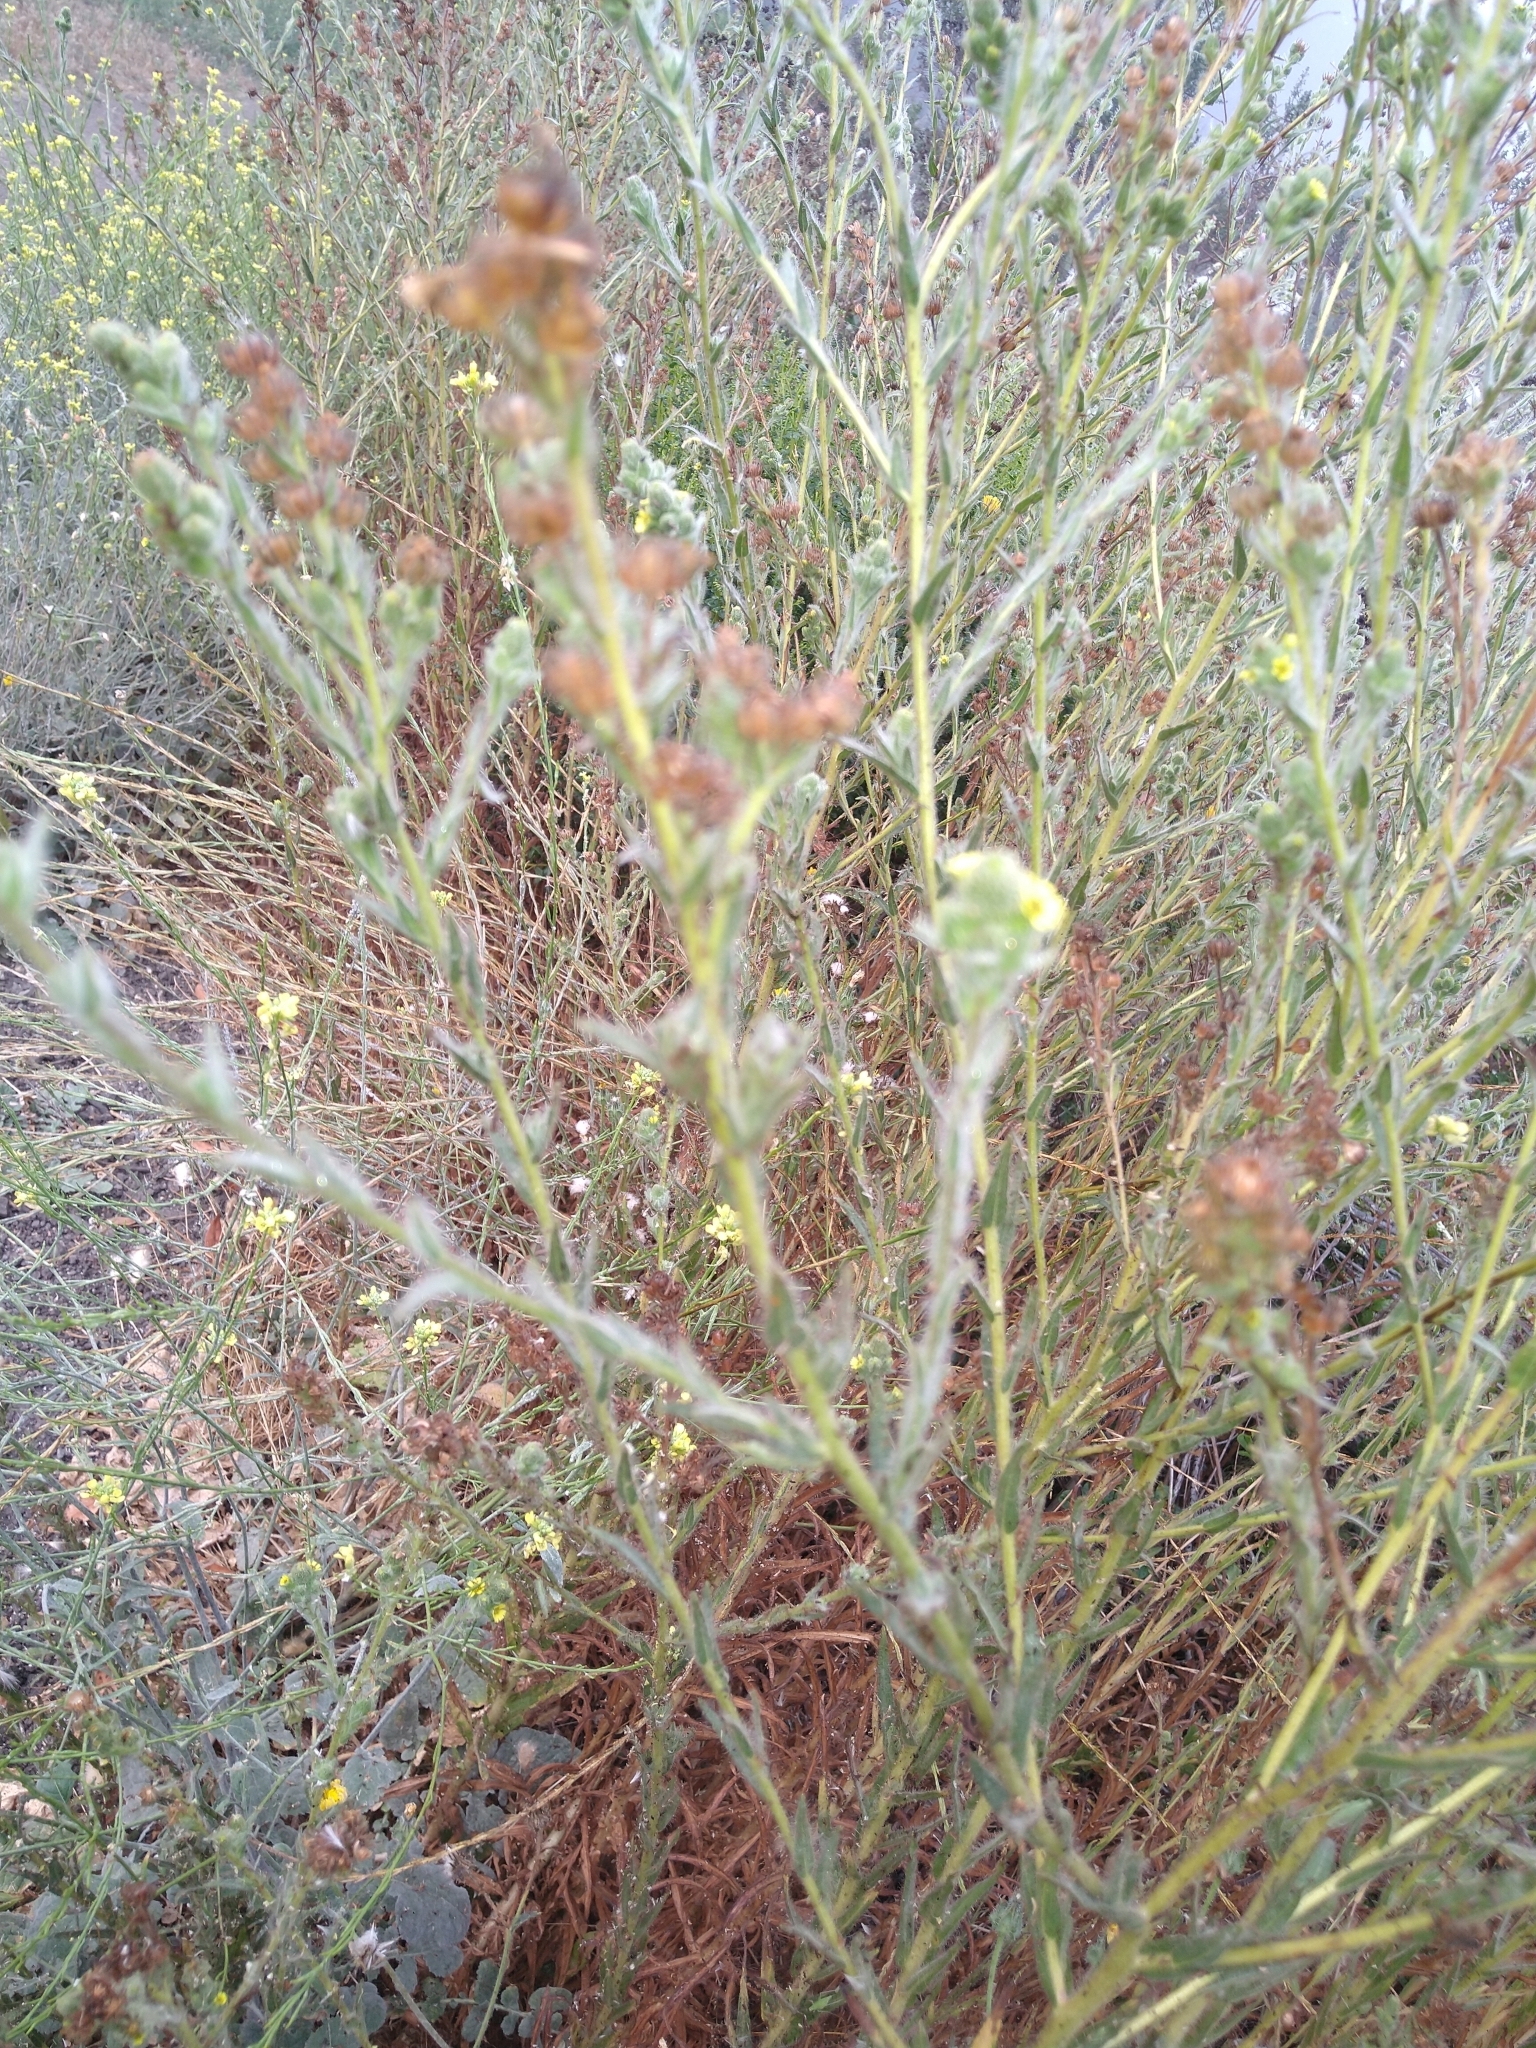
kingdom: Plantae
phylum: Tracheophyta
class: Magnoliopsida
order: Asterales
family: Asteraceae
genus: Madia
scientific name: Madia sativa
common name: Coast tarweed
